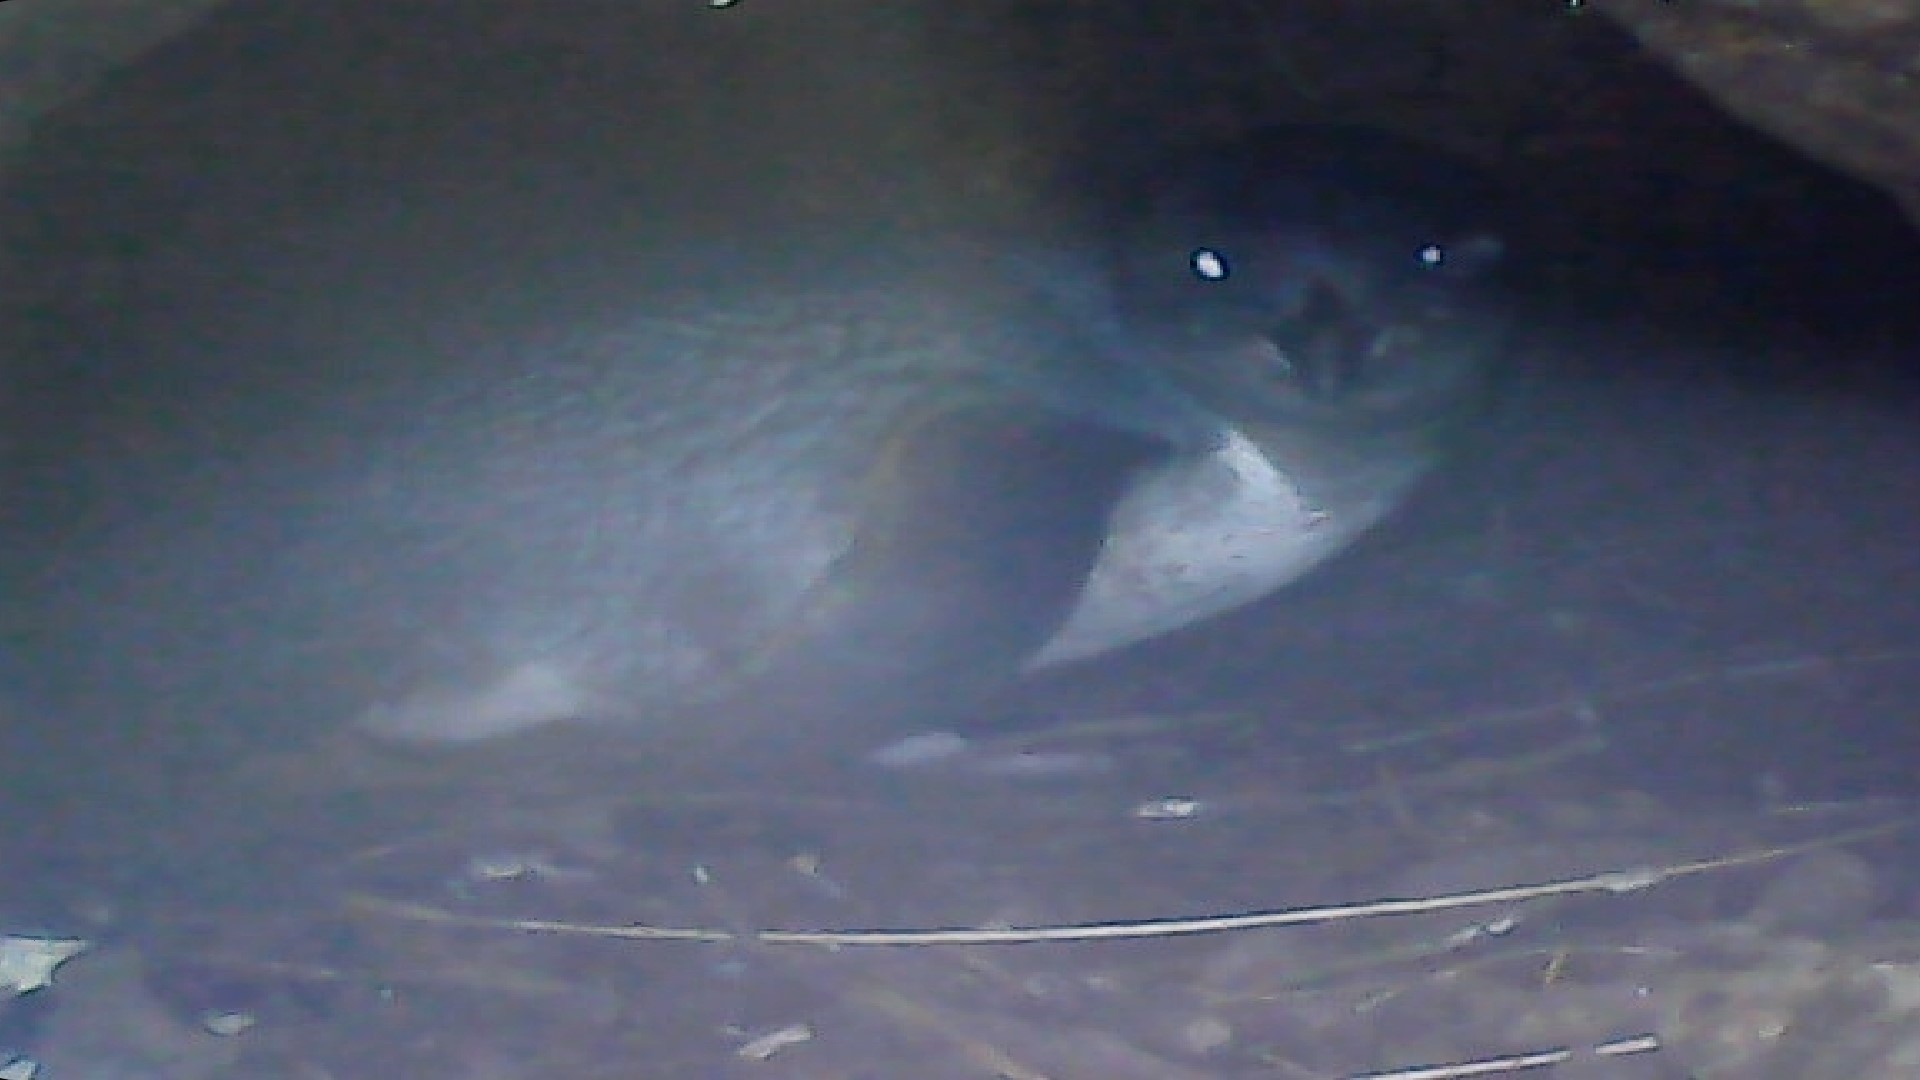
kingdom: Animalia
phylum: Chordata
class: Aves
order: Sphenisciformes
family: Spheniscidae
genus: Eudyptula
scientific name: Eudyptula minor
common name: Little penguin
